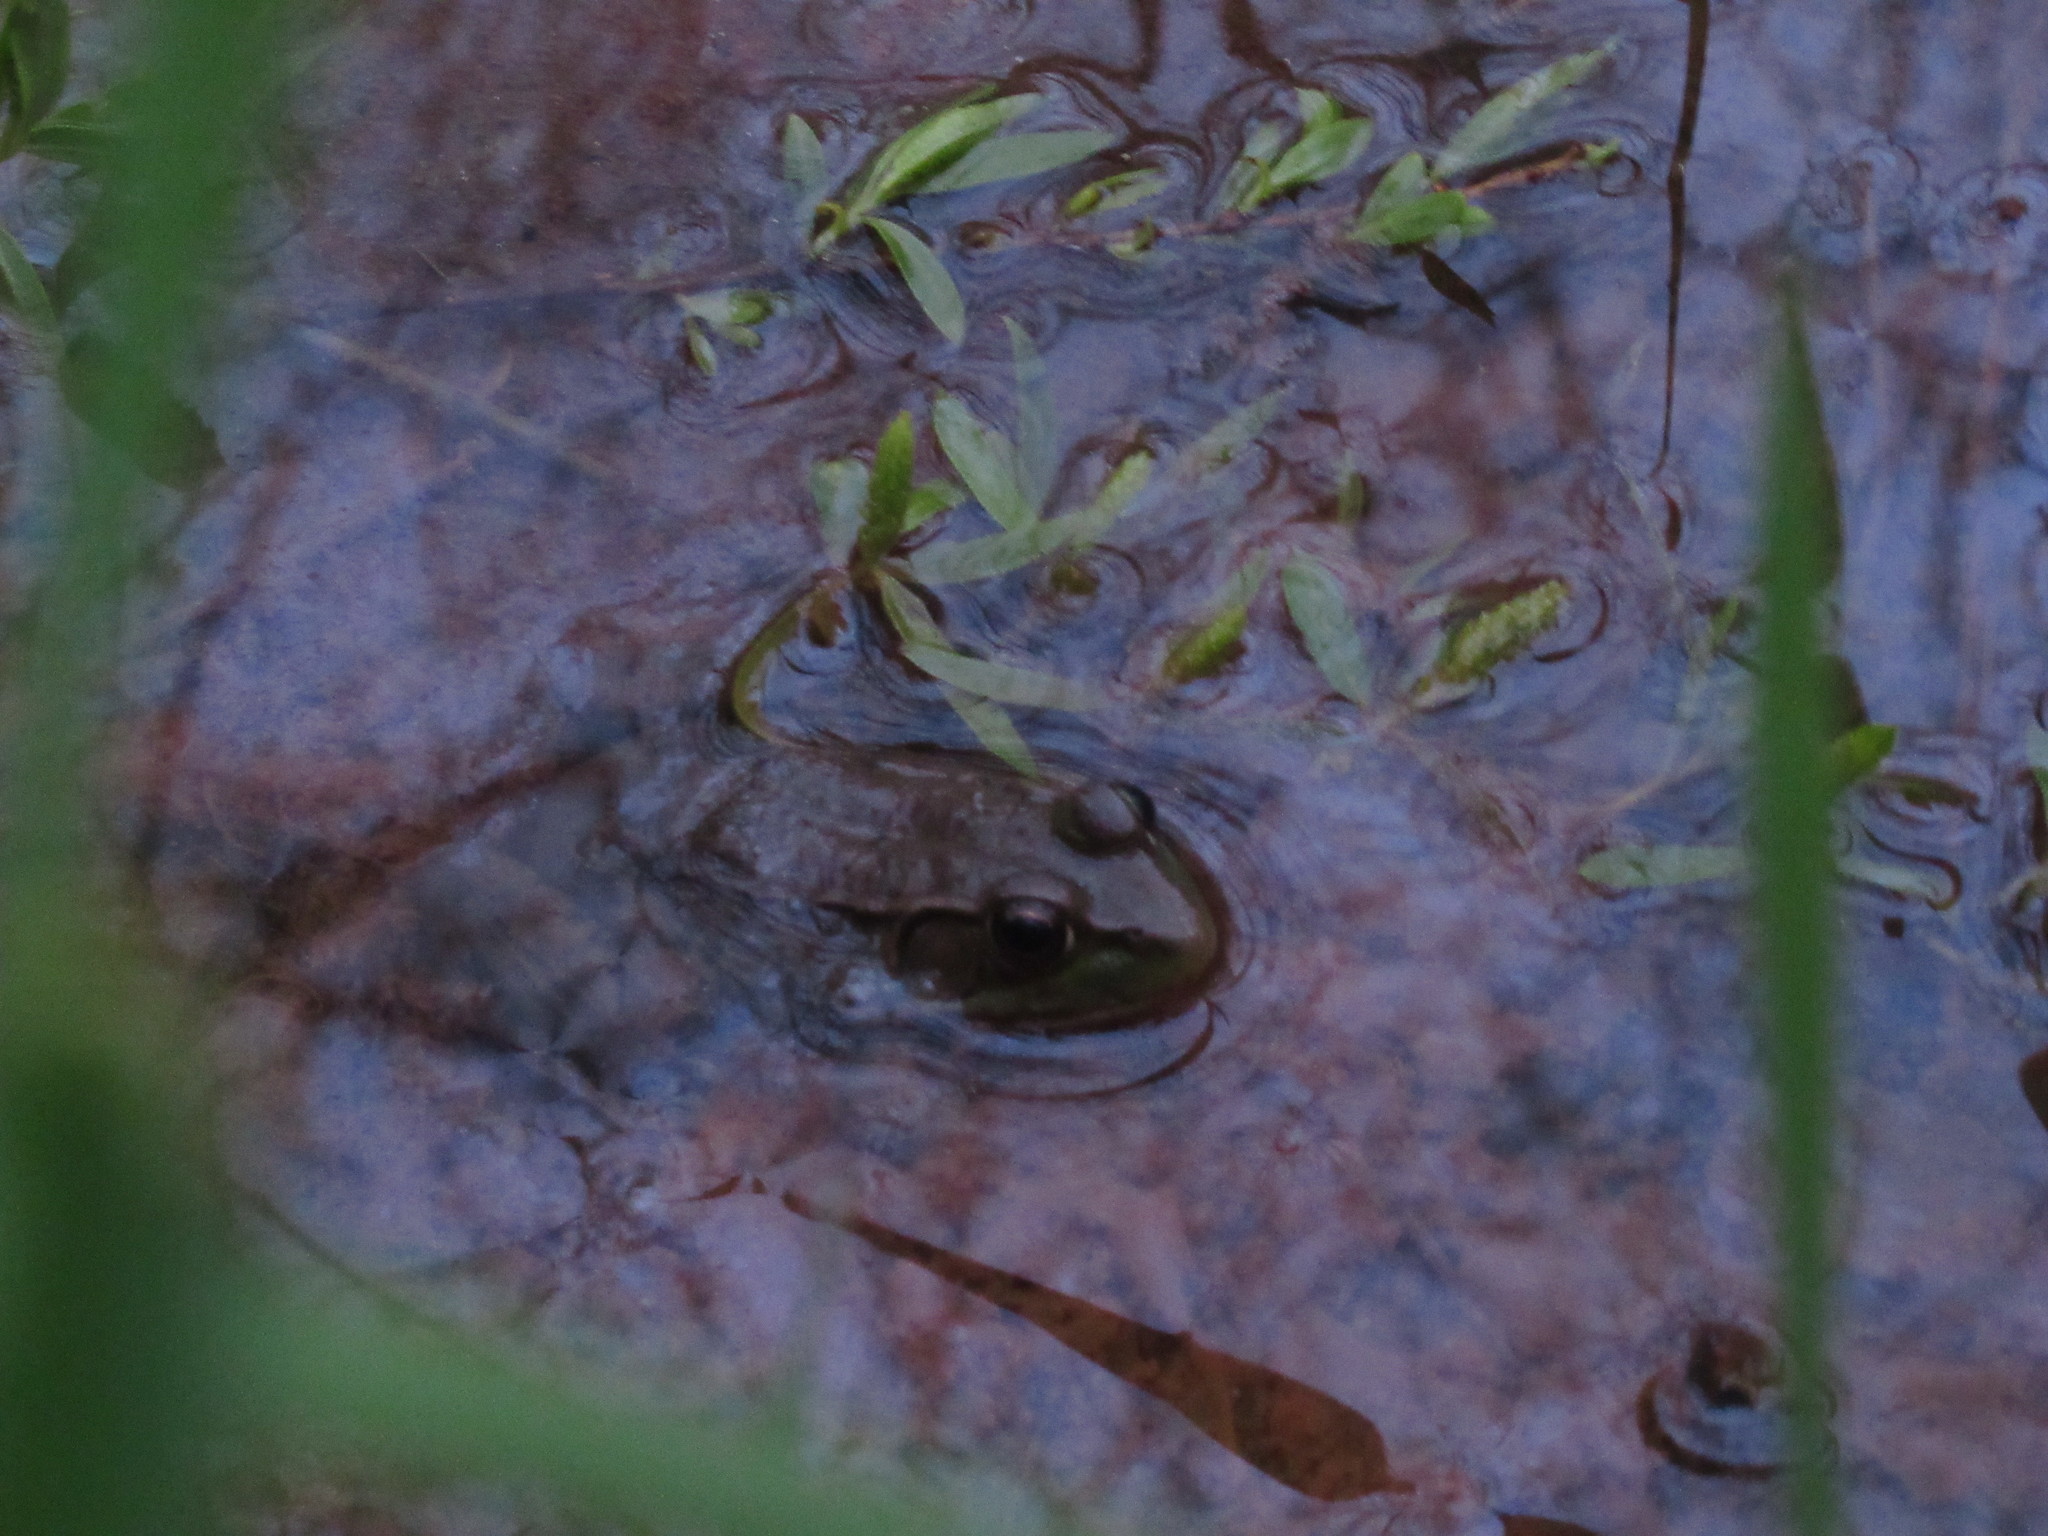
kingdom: Animalia
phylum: Chordata
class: Amphibia
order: Anura
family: Ranidae
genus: Lithobates
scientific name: Lithobates clamitans
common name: Green frog
